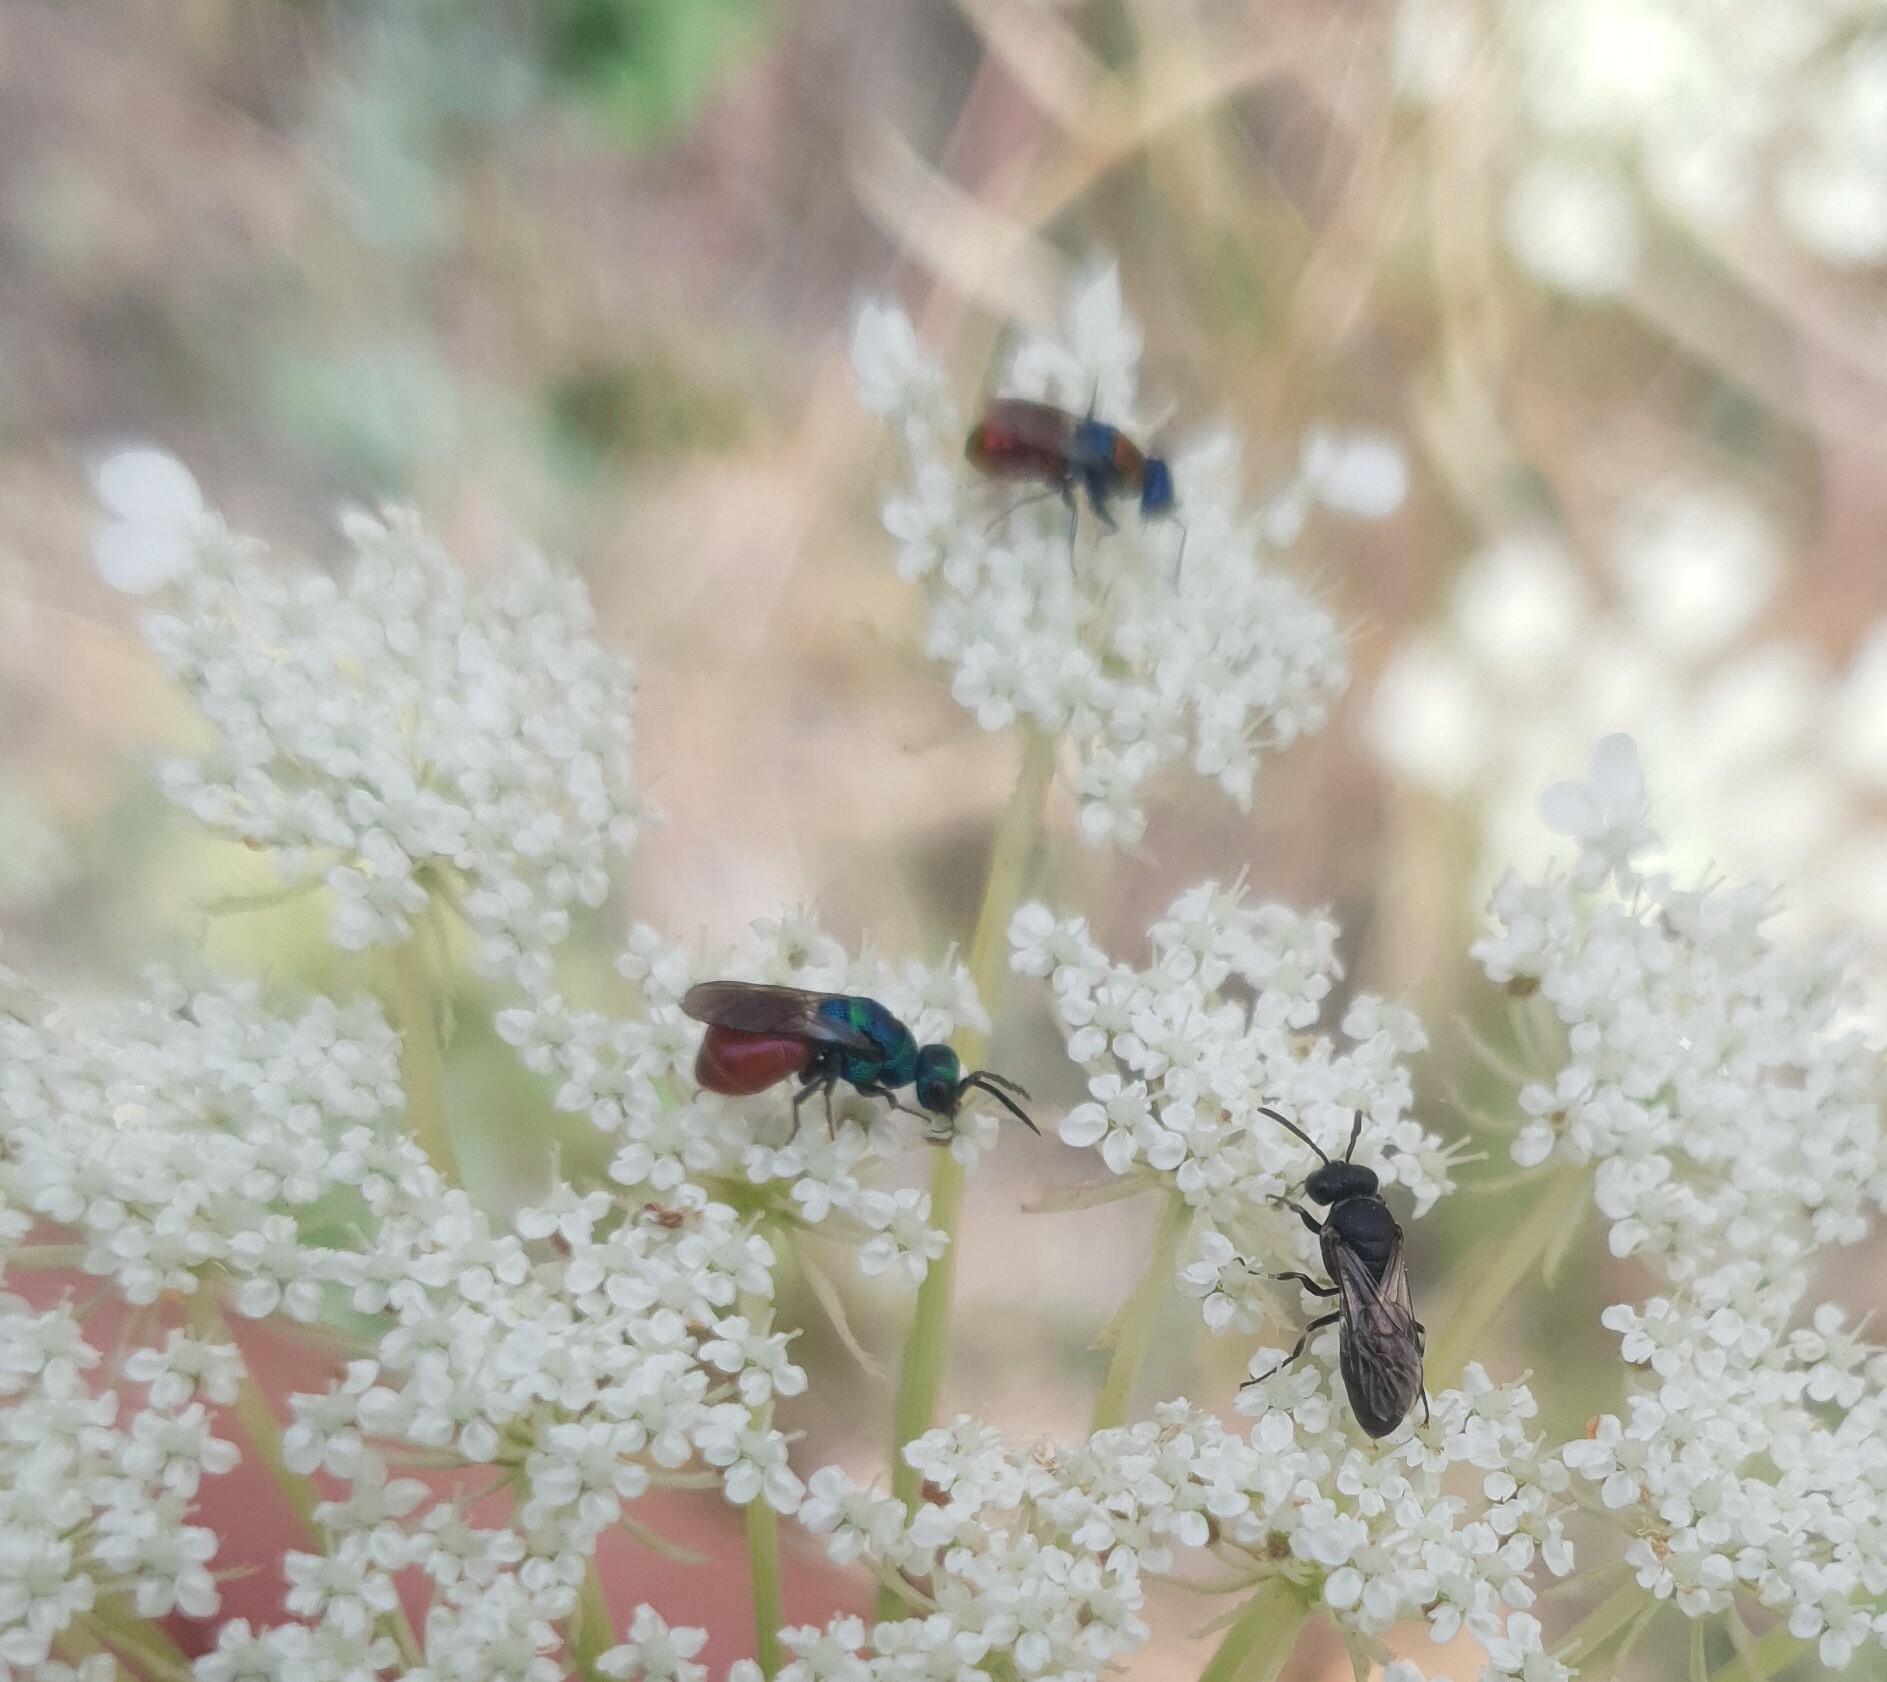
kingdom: Animalia
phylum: Arthropoda
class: Insecta
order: Hymenoptera
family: Chrysididae
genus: Hedychridium
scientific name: Hedychridium roseum
